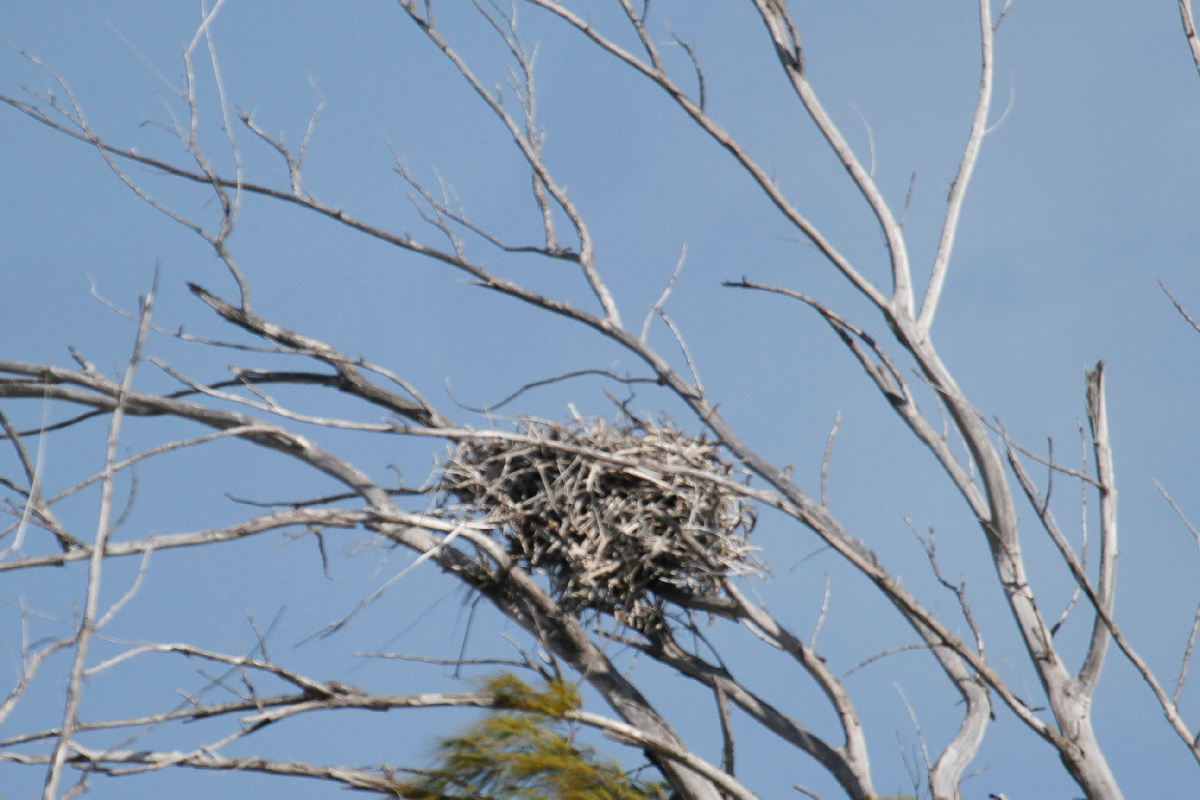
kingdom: Animalia
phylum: Chordata
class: Aves
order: Accipitriformes
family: Pandionidae
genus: Pandion
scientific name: Pandion haliaetus
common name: Osprey
